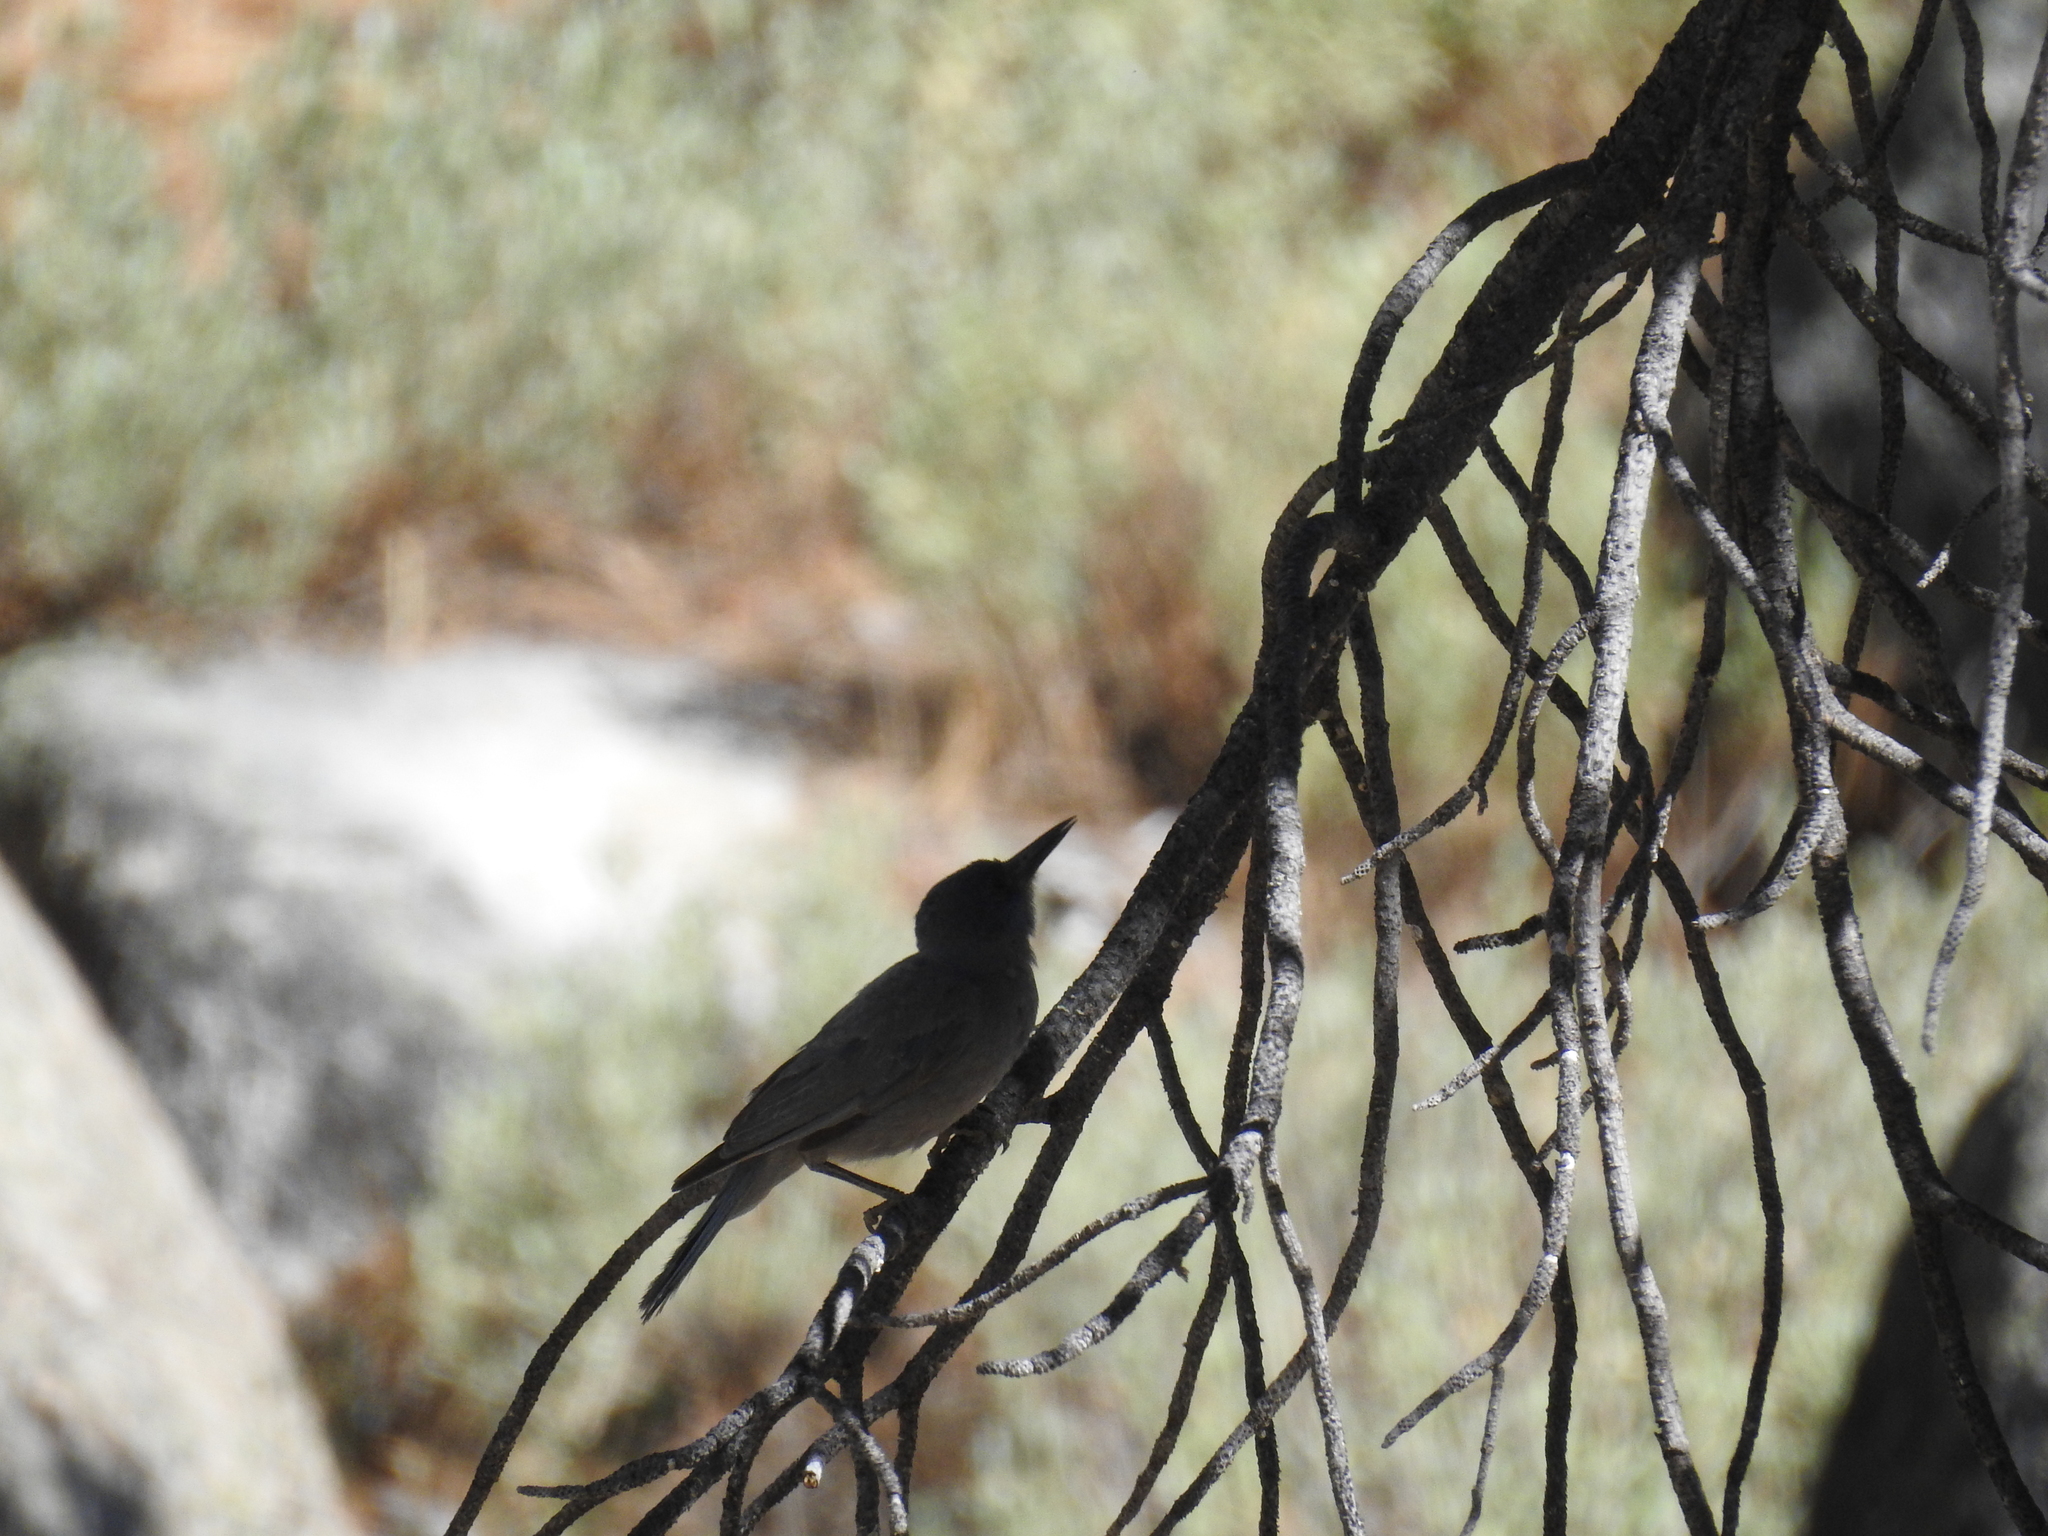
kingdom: Animalia
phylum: Chordata
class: Aves
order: Passeriformes
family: Corvidae
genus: Gymnorhinus
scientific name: Gymnorhinus cyanocephalus
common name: Pinyon jay
